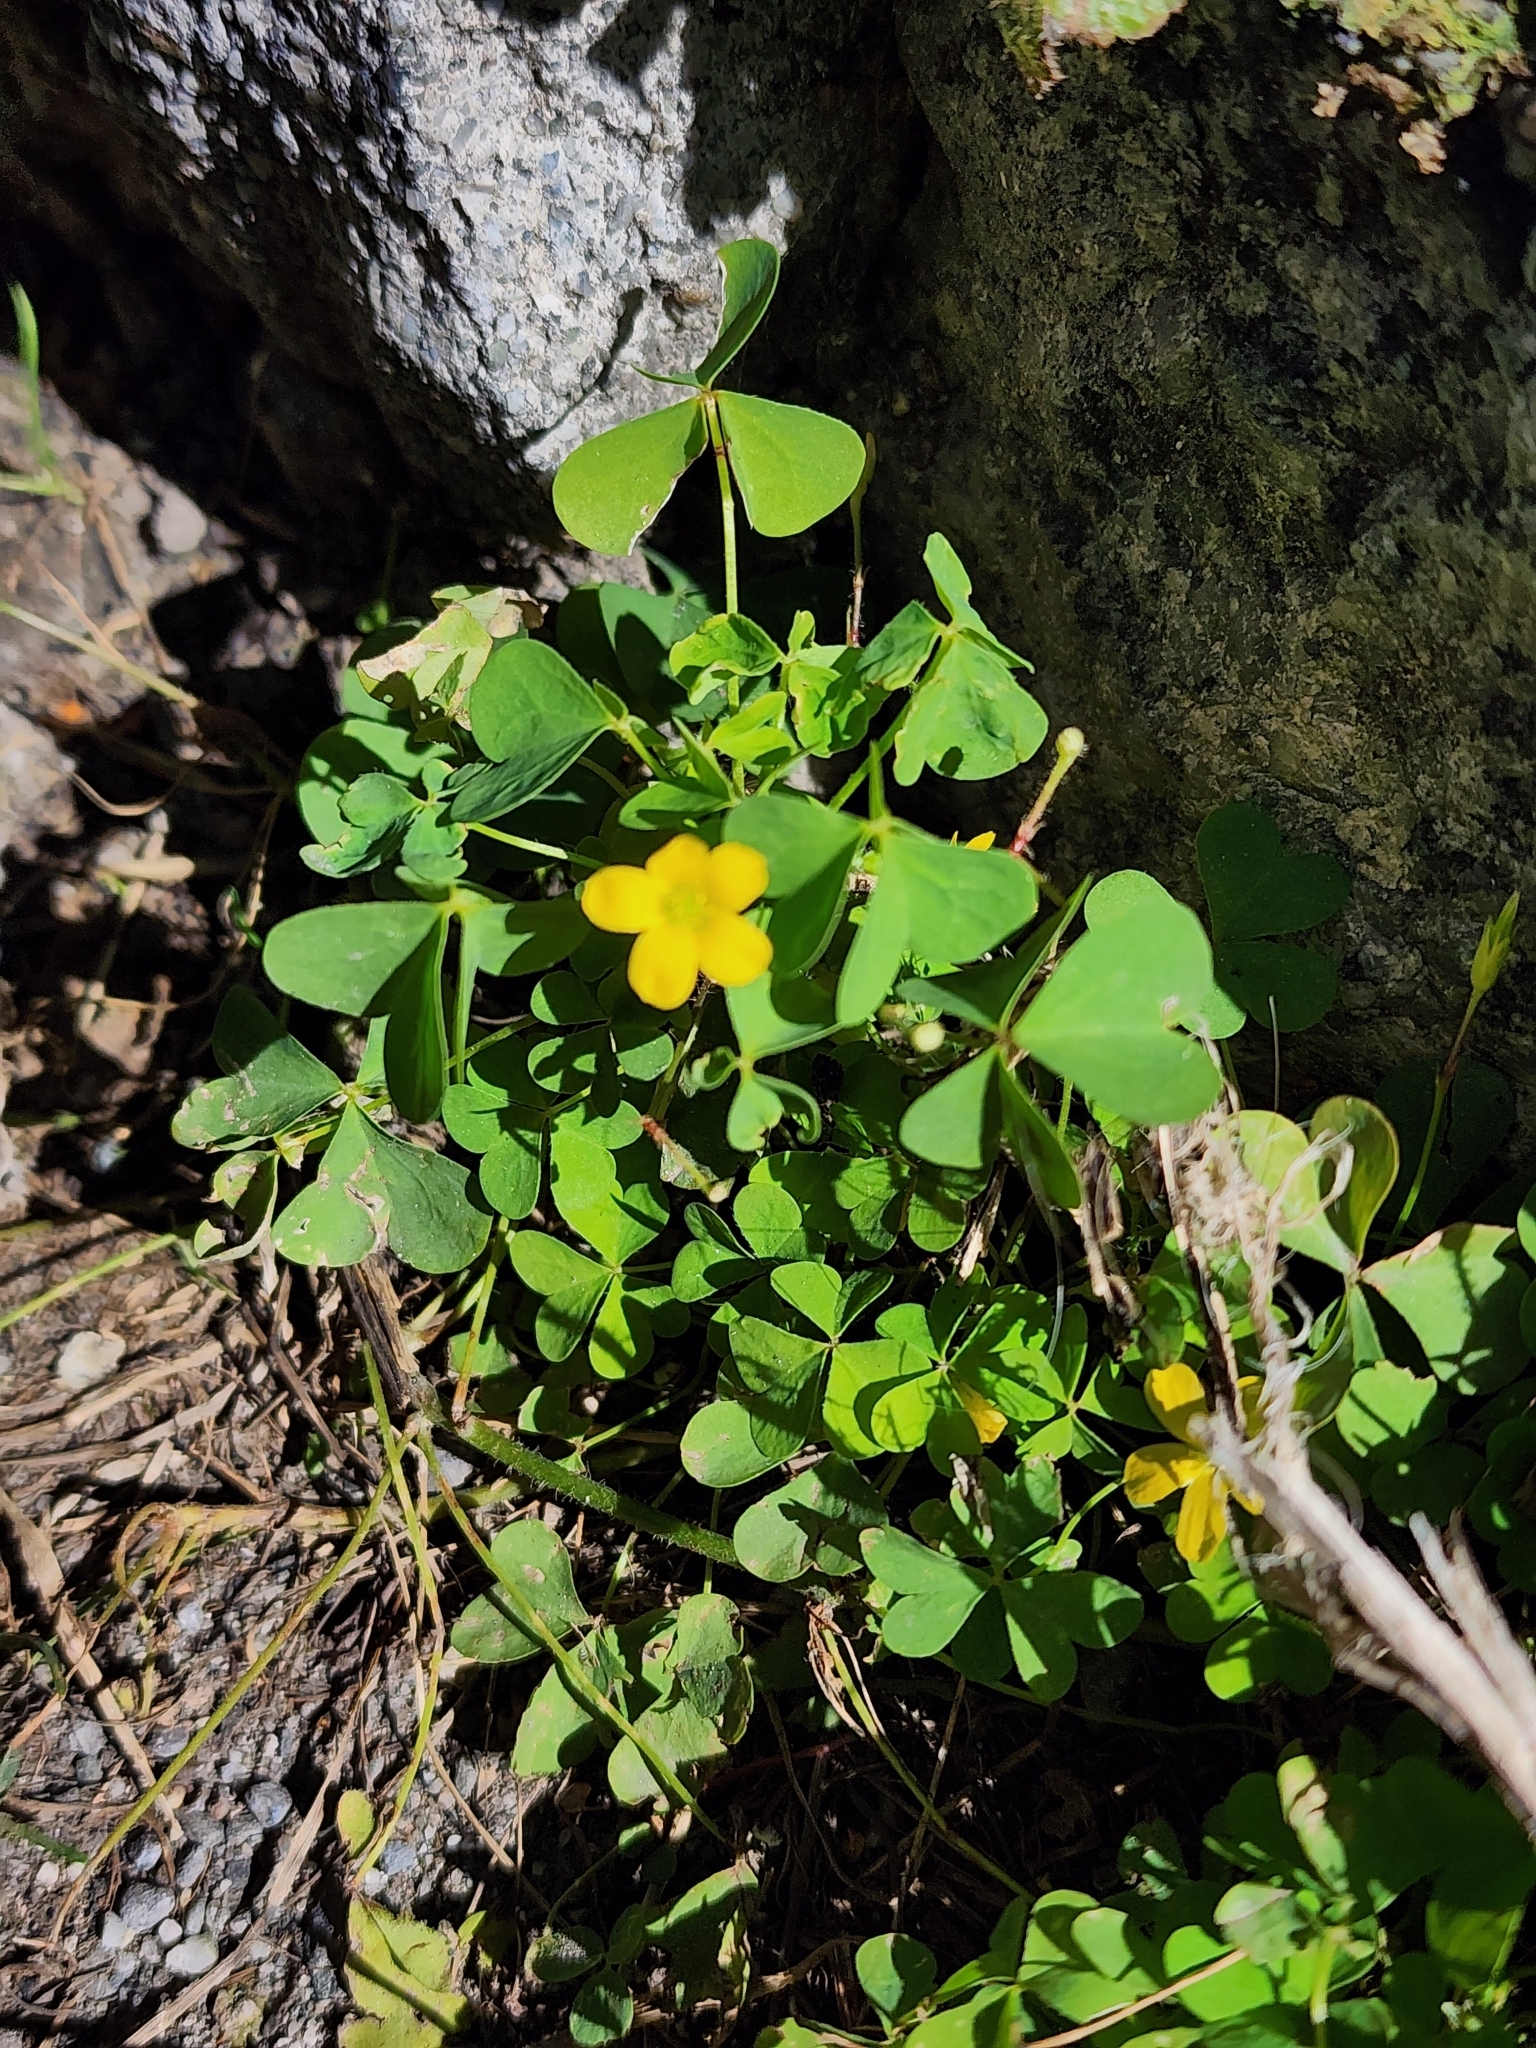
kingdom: Plantae
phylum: Tracheophyta
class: Magnoliopsida
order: Oxalidales
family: Oxalidaceae
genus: Oxalis
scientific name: Oxalis stricta
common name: Upright yellow-sorrel
